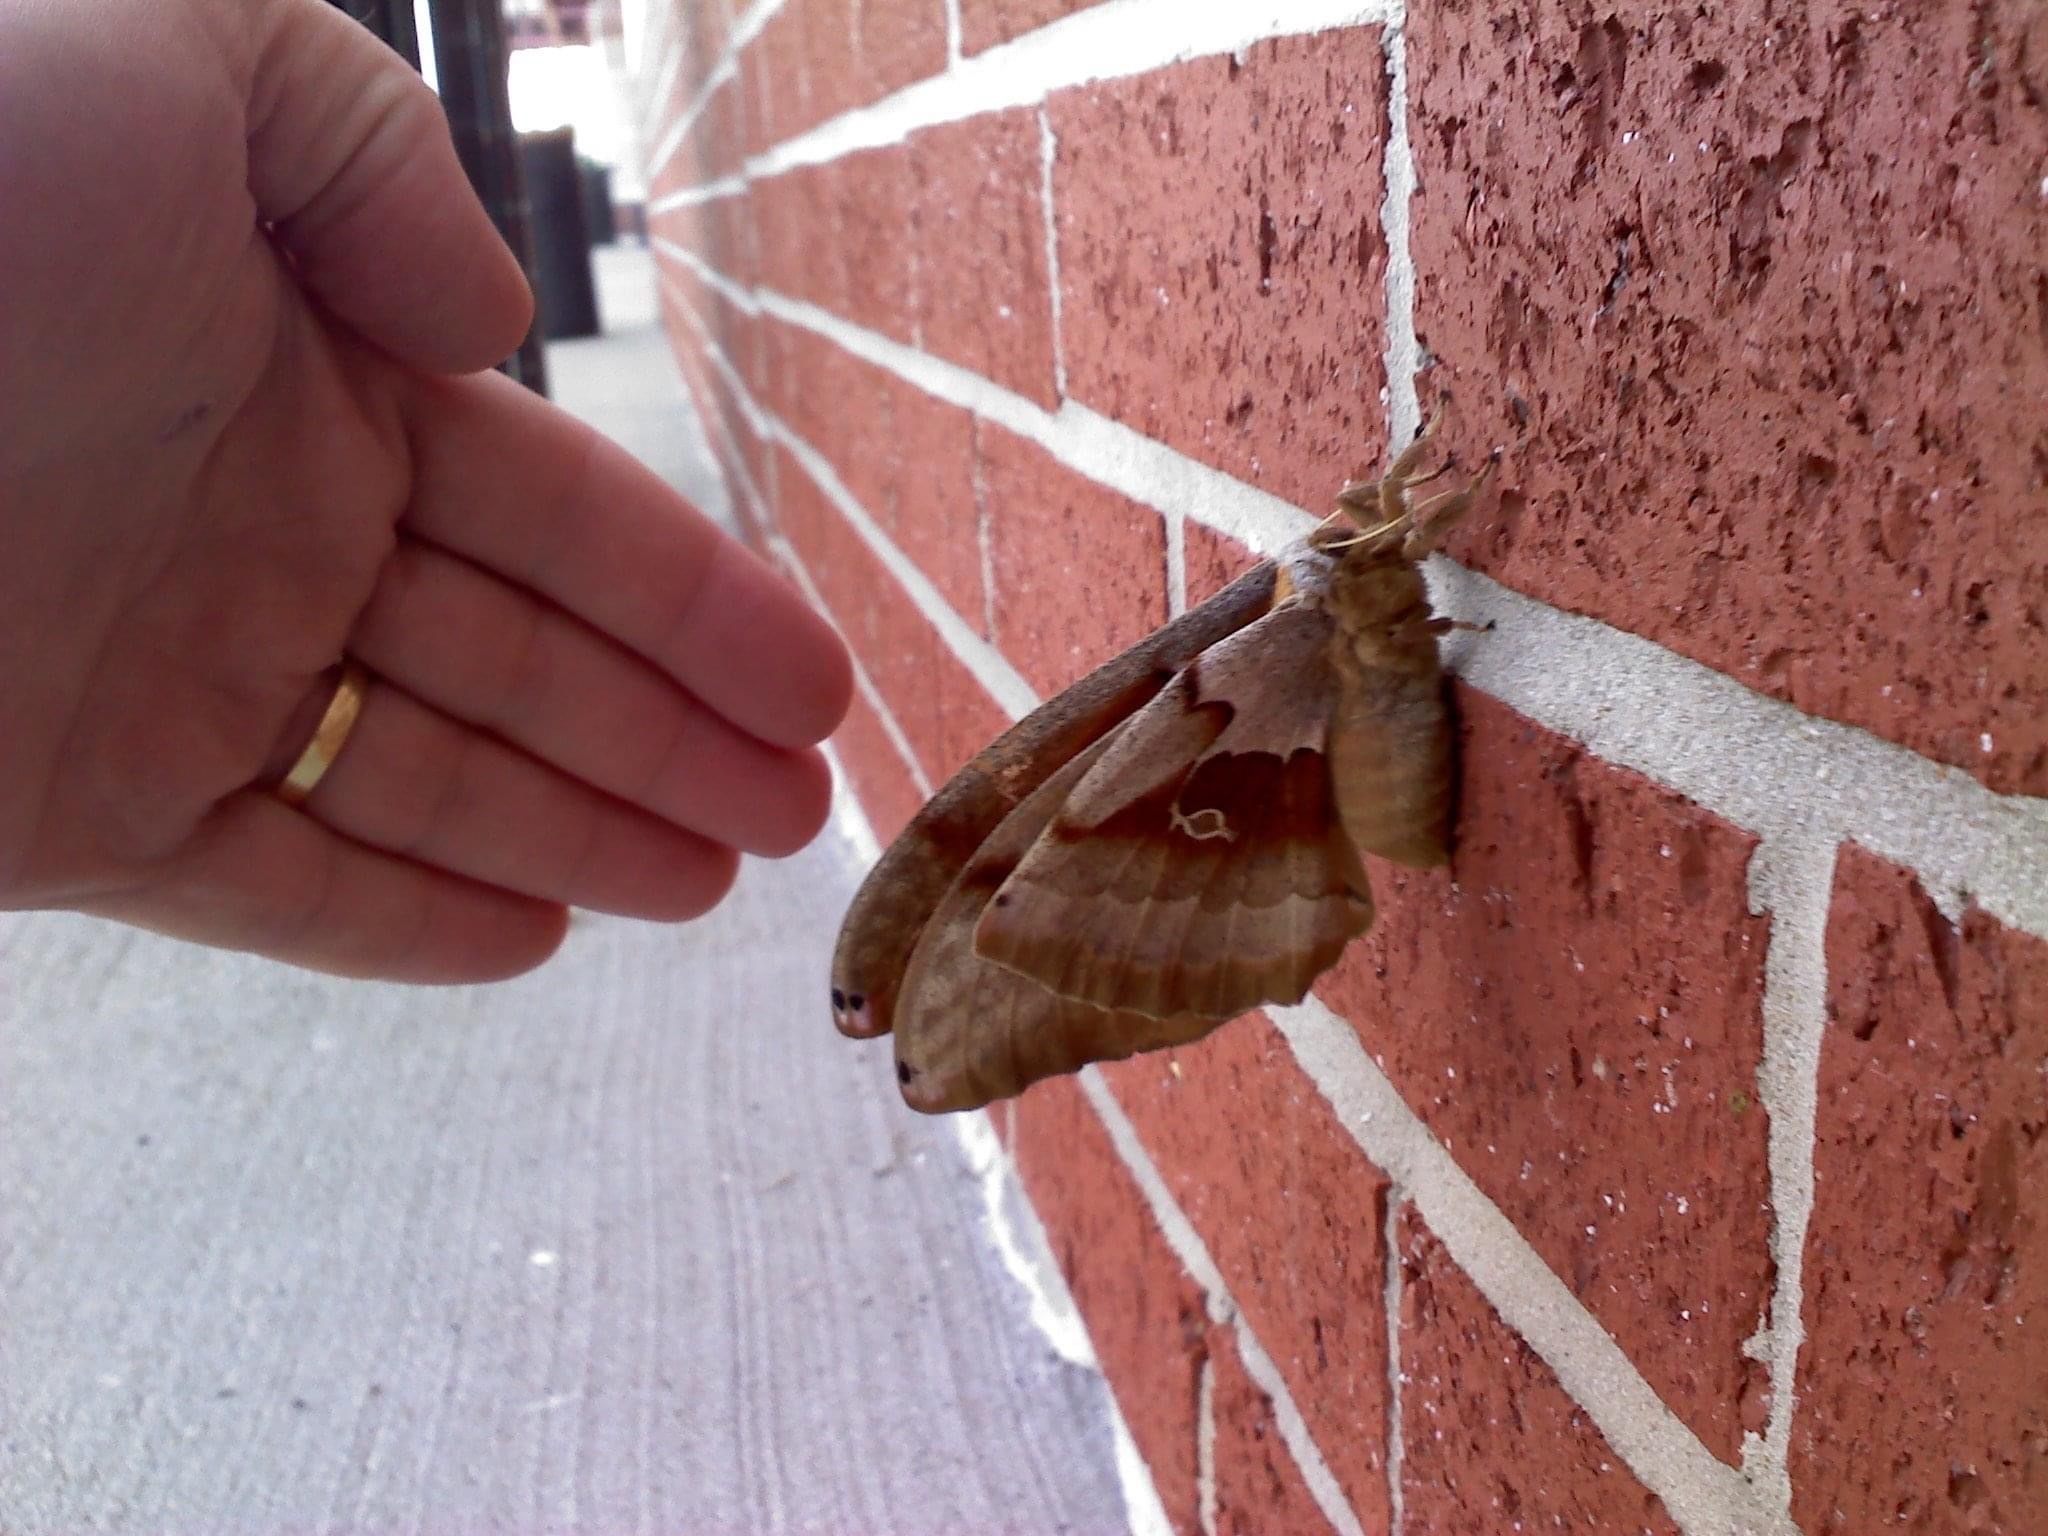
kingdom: Animalia
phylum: Arthropoda
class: Insecta
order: Lepidoptera
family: Saturniidae
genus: Antheraea
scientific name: Antheraea polyphemus
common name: Polyphemus moth
